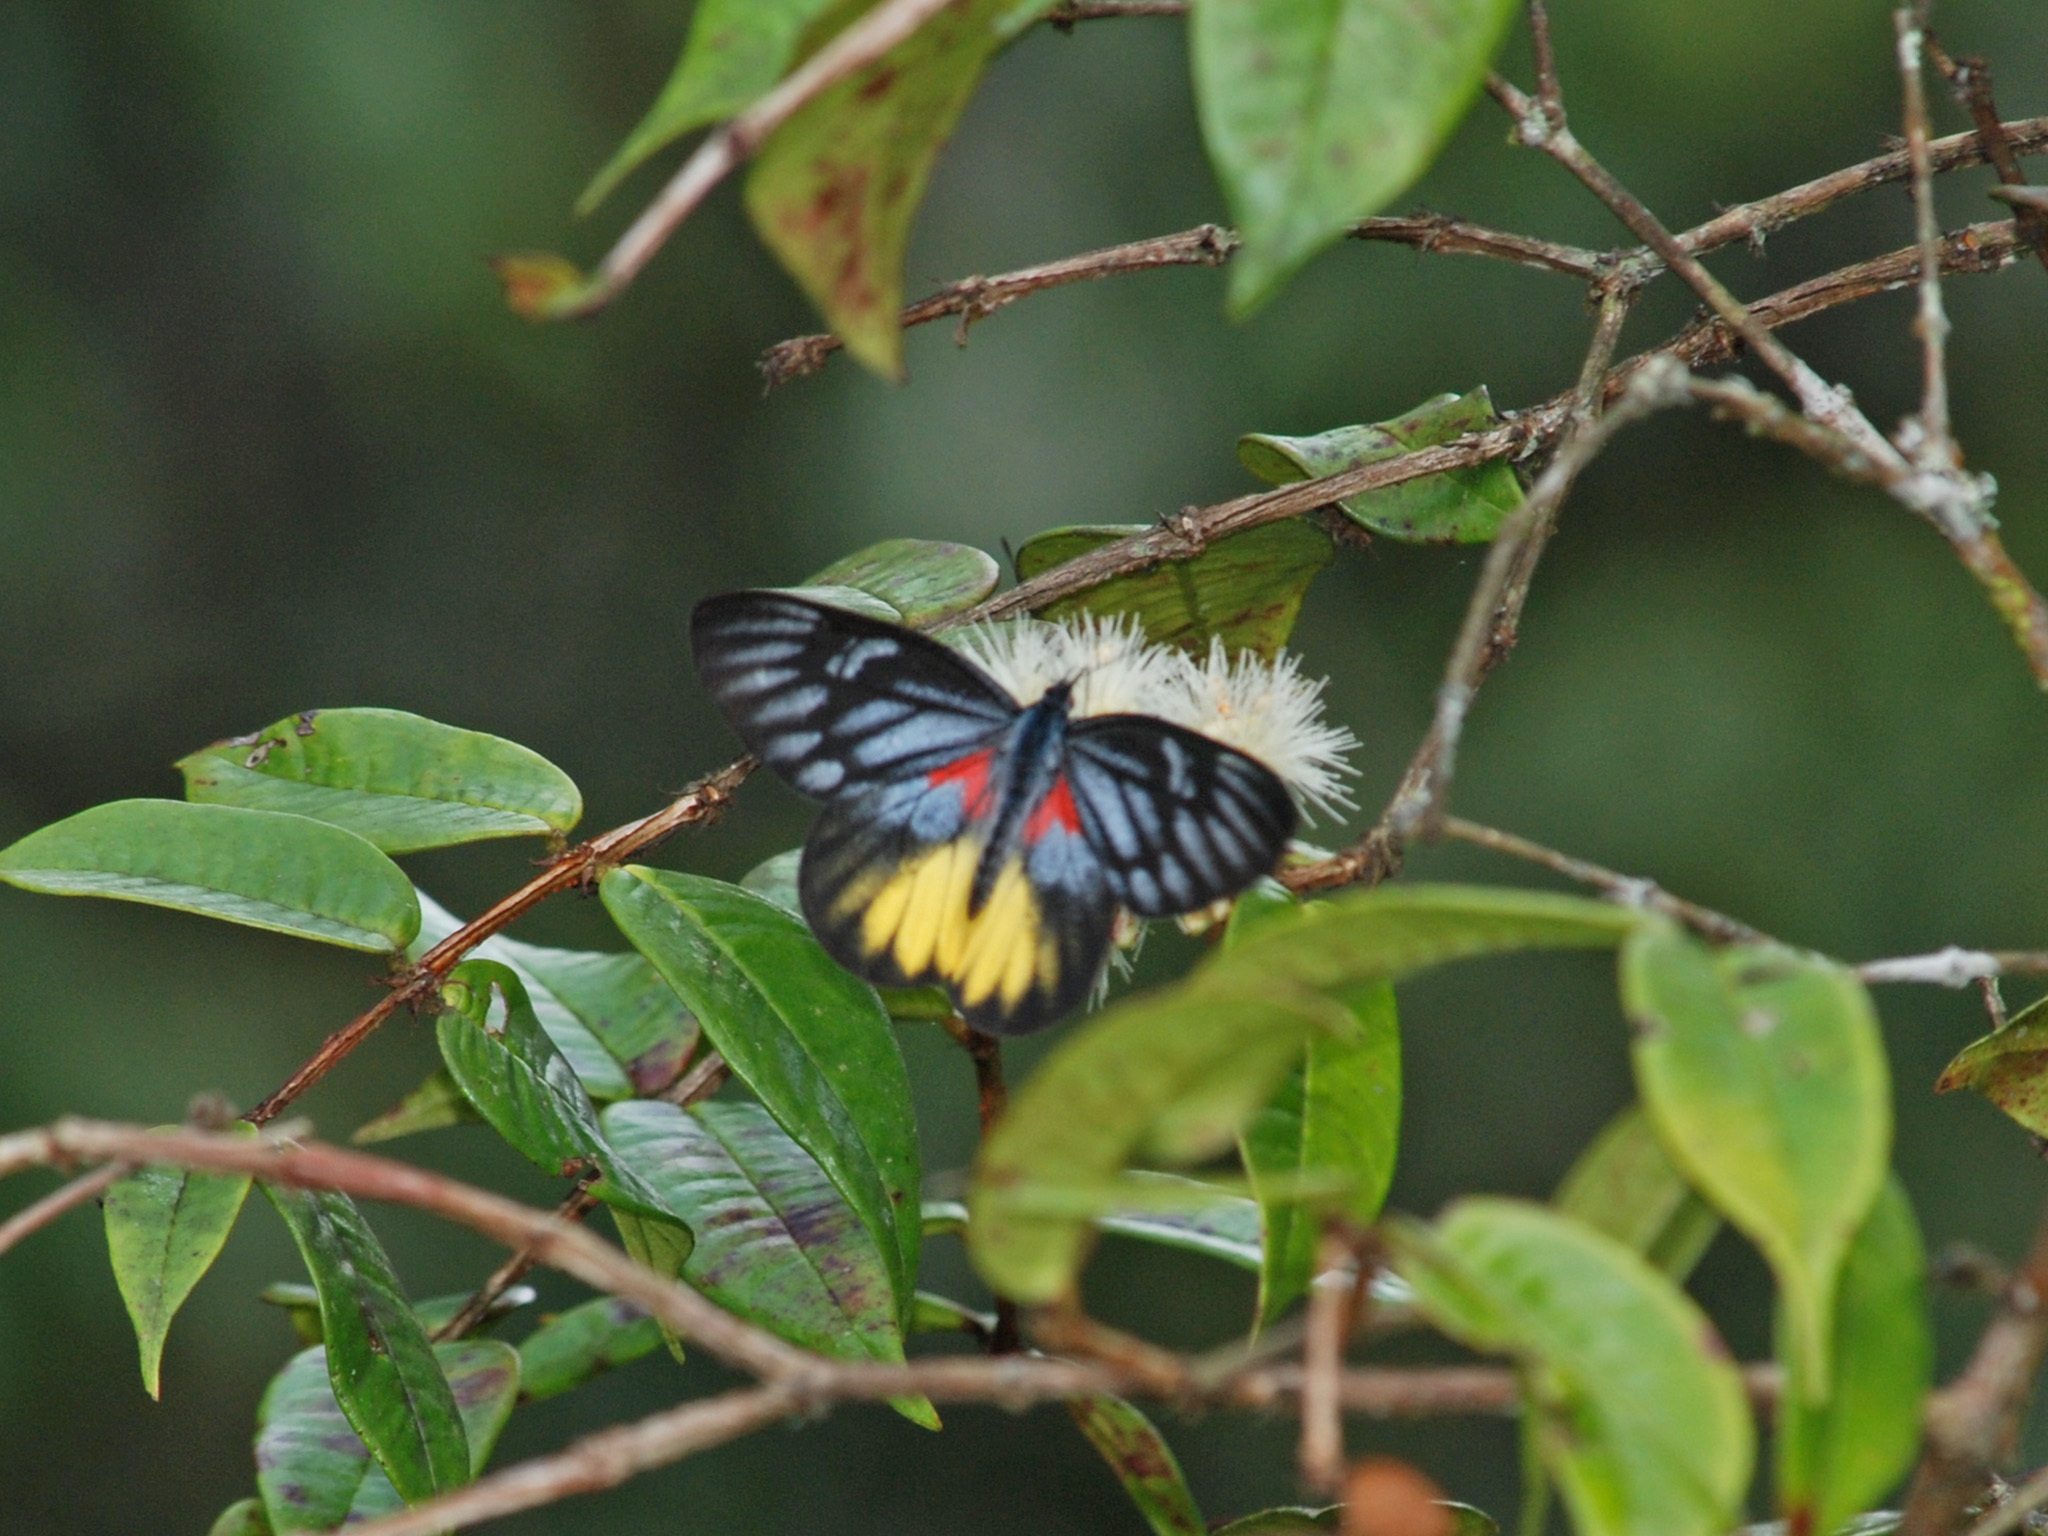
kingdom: Animalia
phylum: Arthropoda
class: Insecta
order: Lepidoptera
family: Pieridae
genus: Delias
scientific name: Delias ninus
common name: Malayan jezebel
